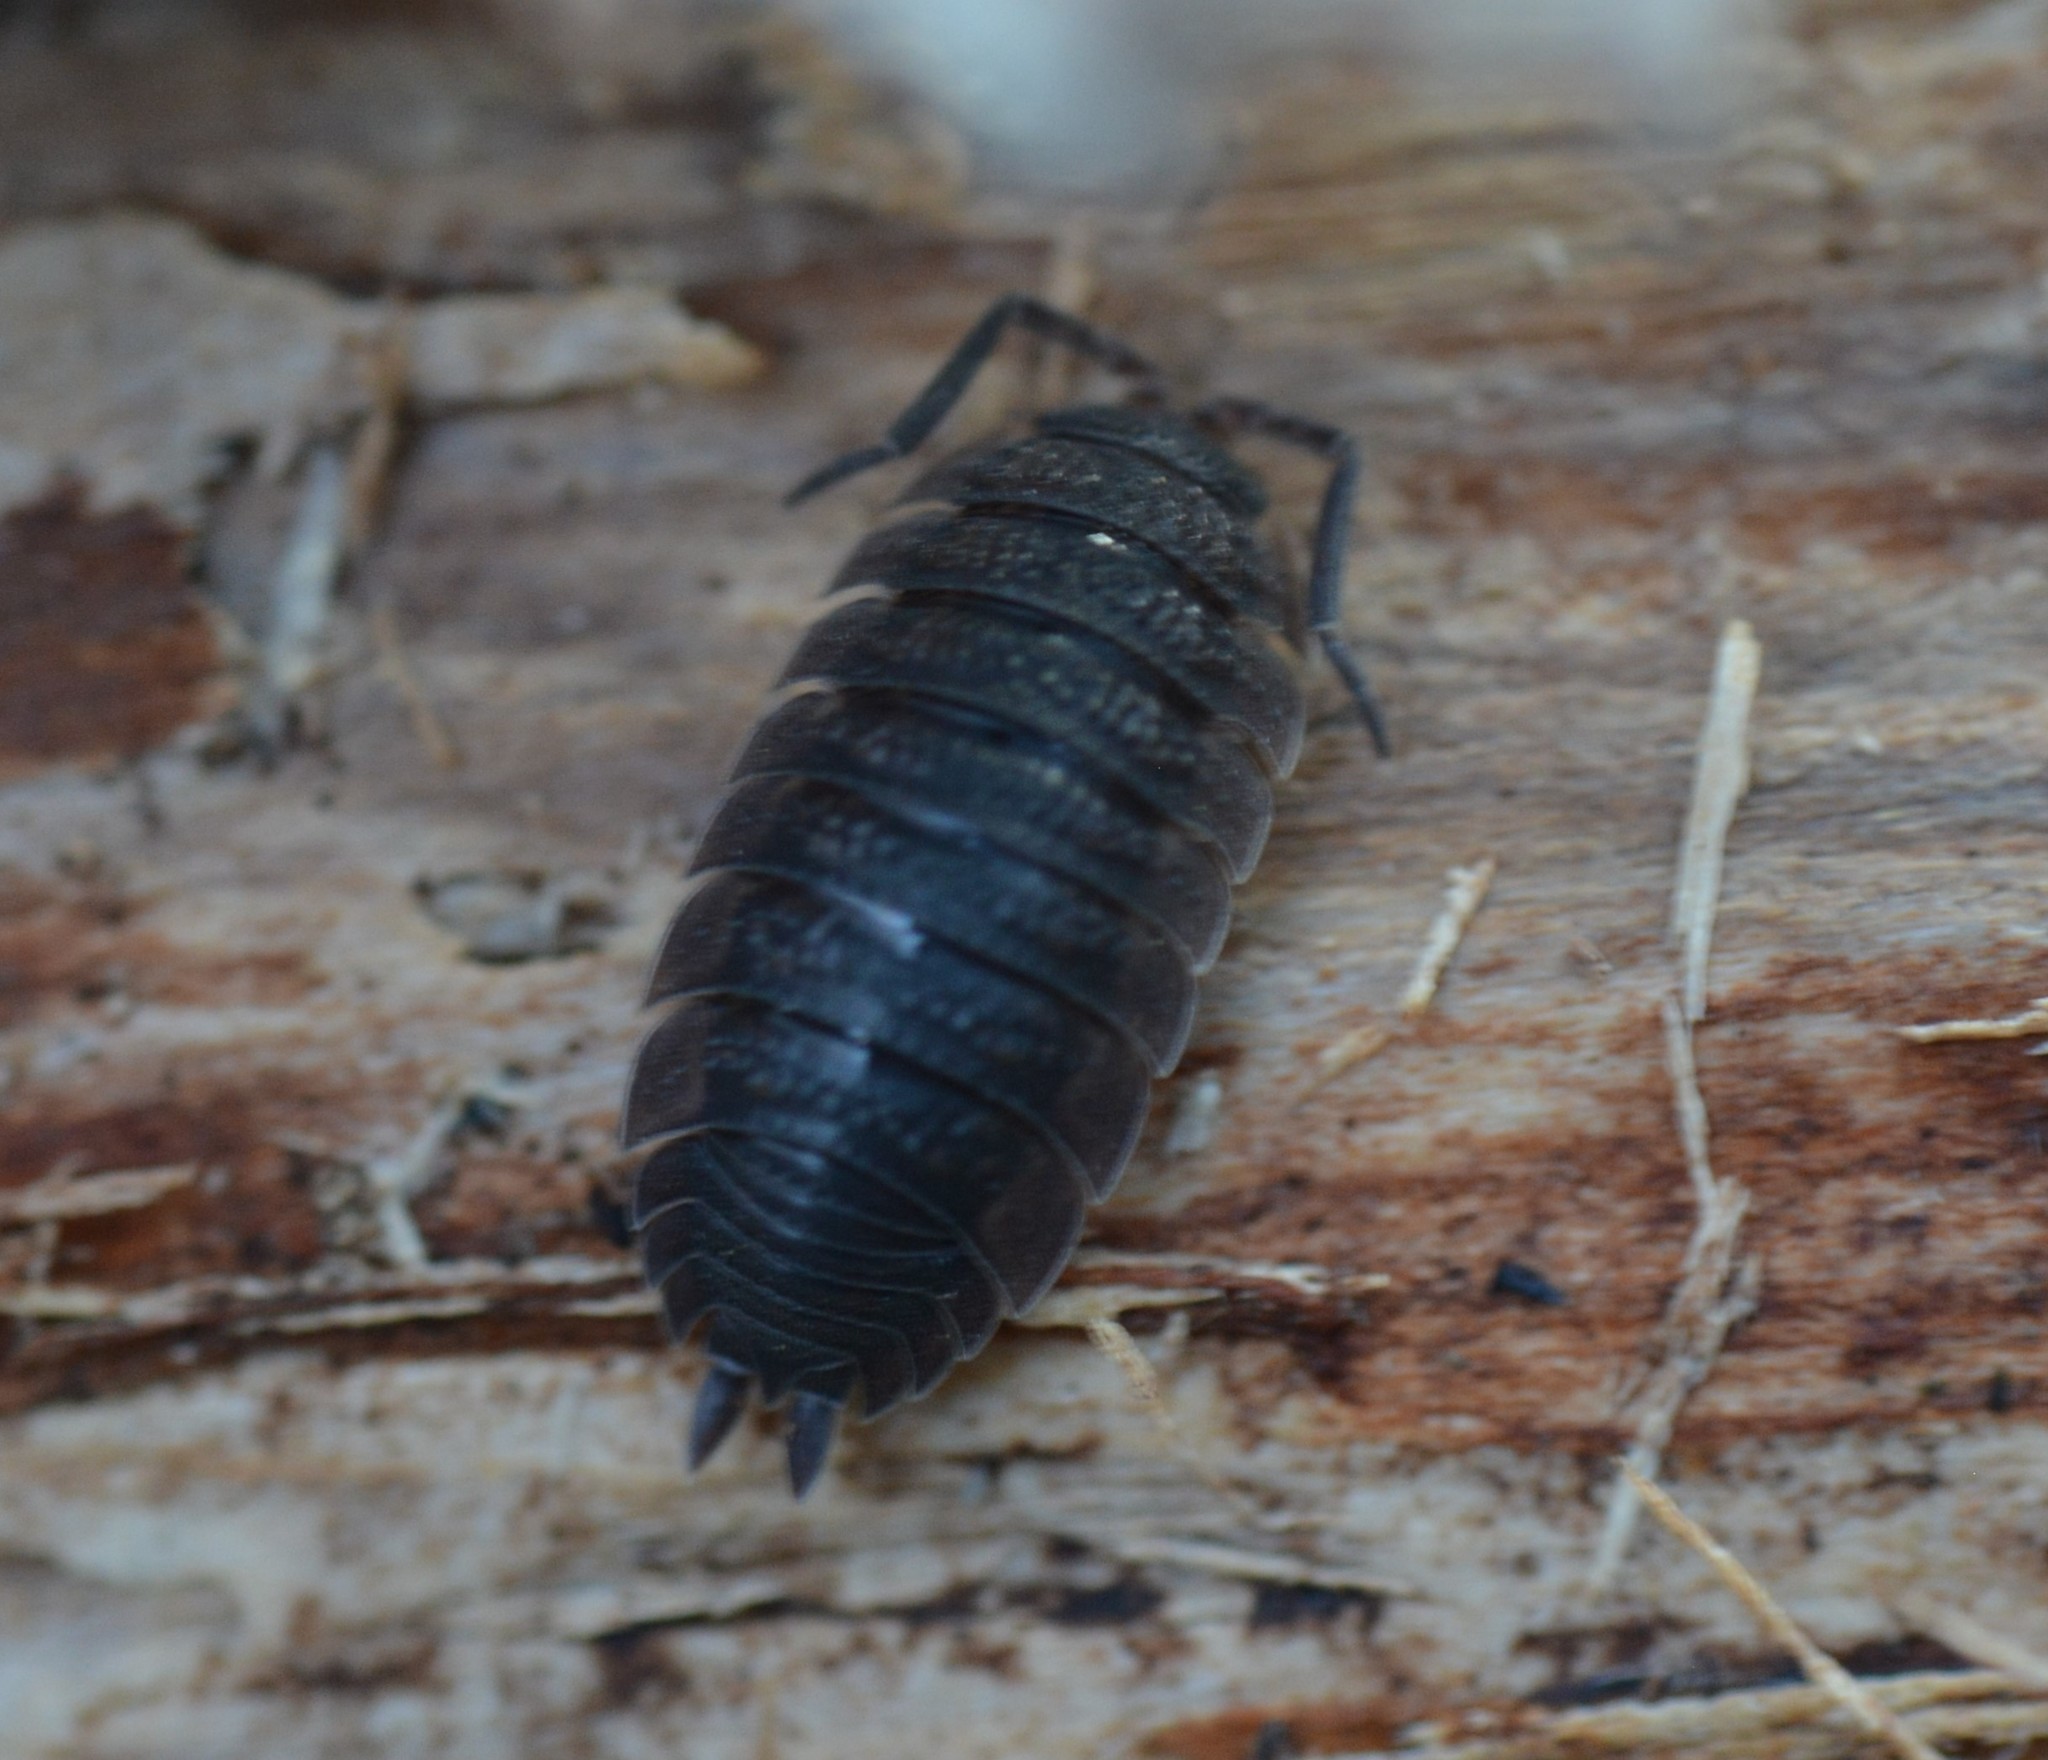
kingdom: Animalia
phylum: Arthropoda
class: Malacostraca
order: Isopoda
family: Porcellionidae
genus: Porcellio
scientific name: Porcellio scaber
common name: Common rough woodlouse
